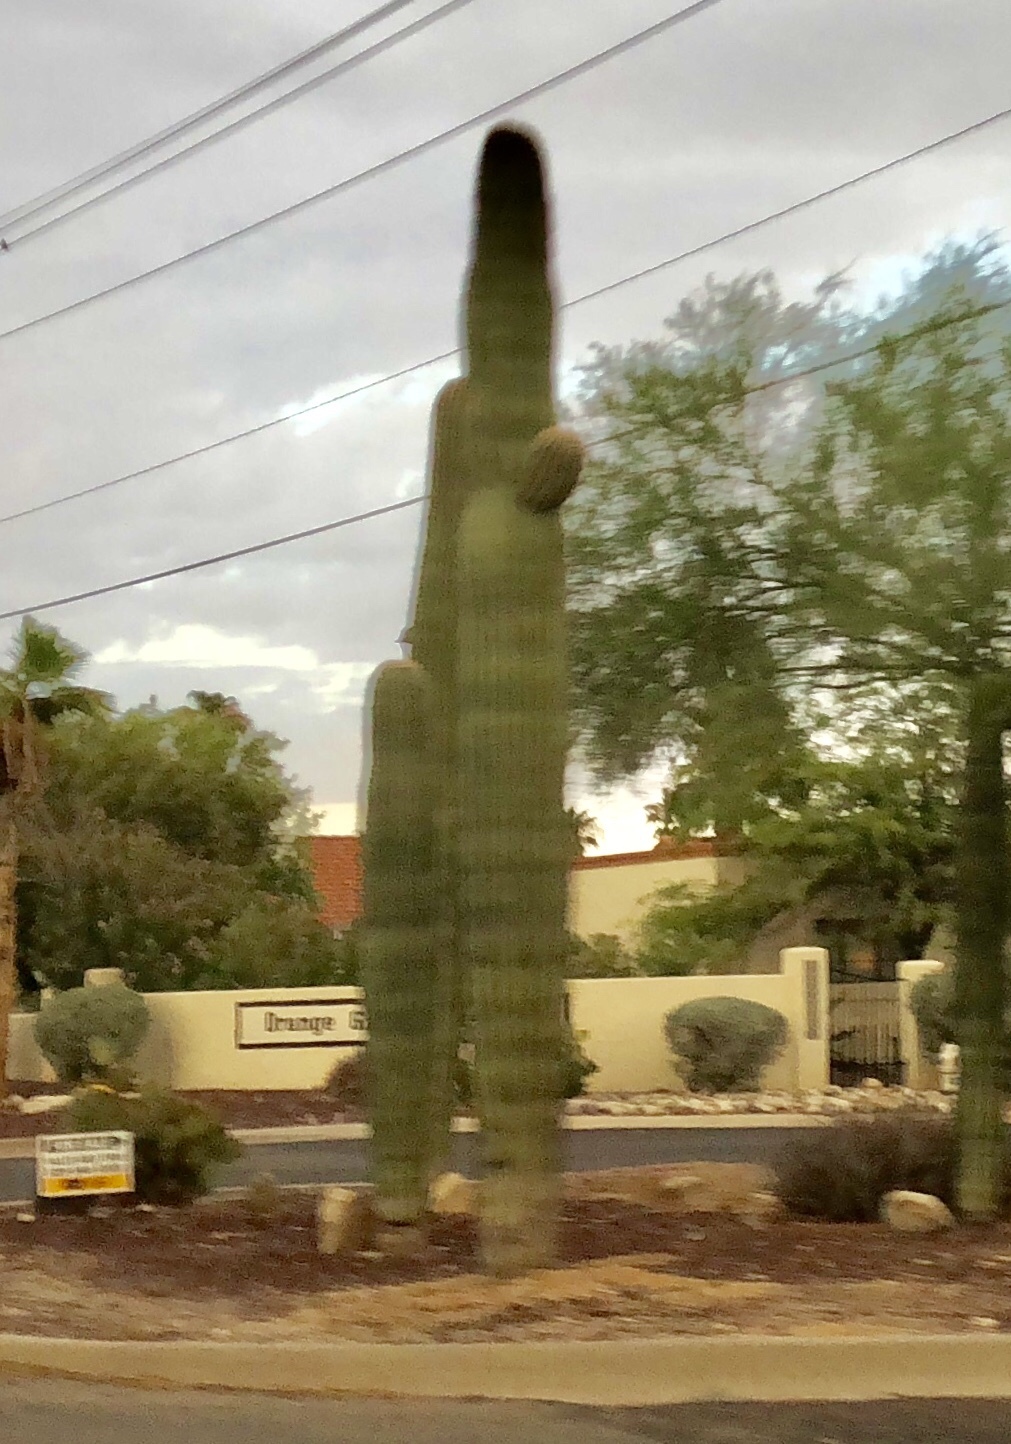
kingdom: Plantae
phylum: Tracheophyta
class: Magnoliopsida
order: Caryophyllales
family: Cactaceae
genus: Carnegiea
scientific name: Carnegiea gigantea
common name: Saguaro
